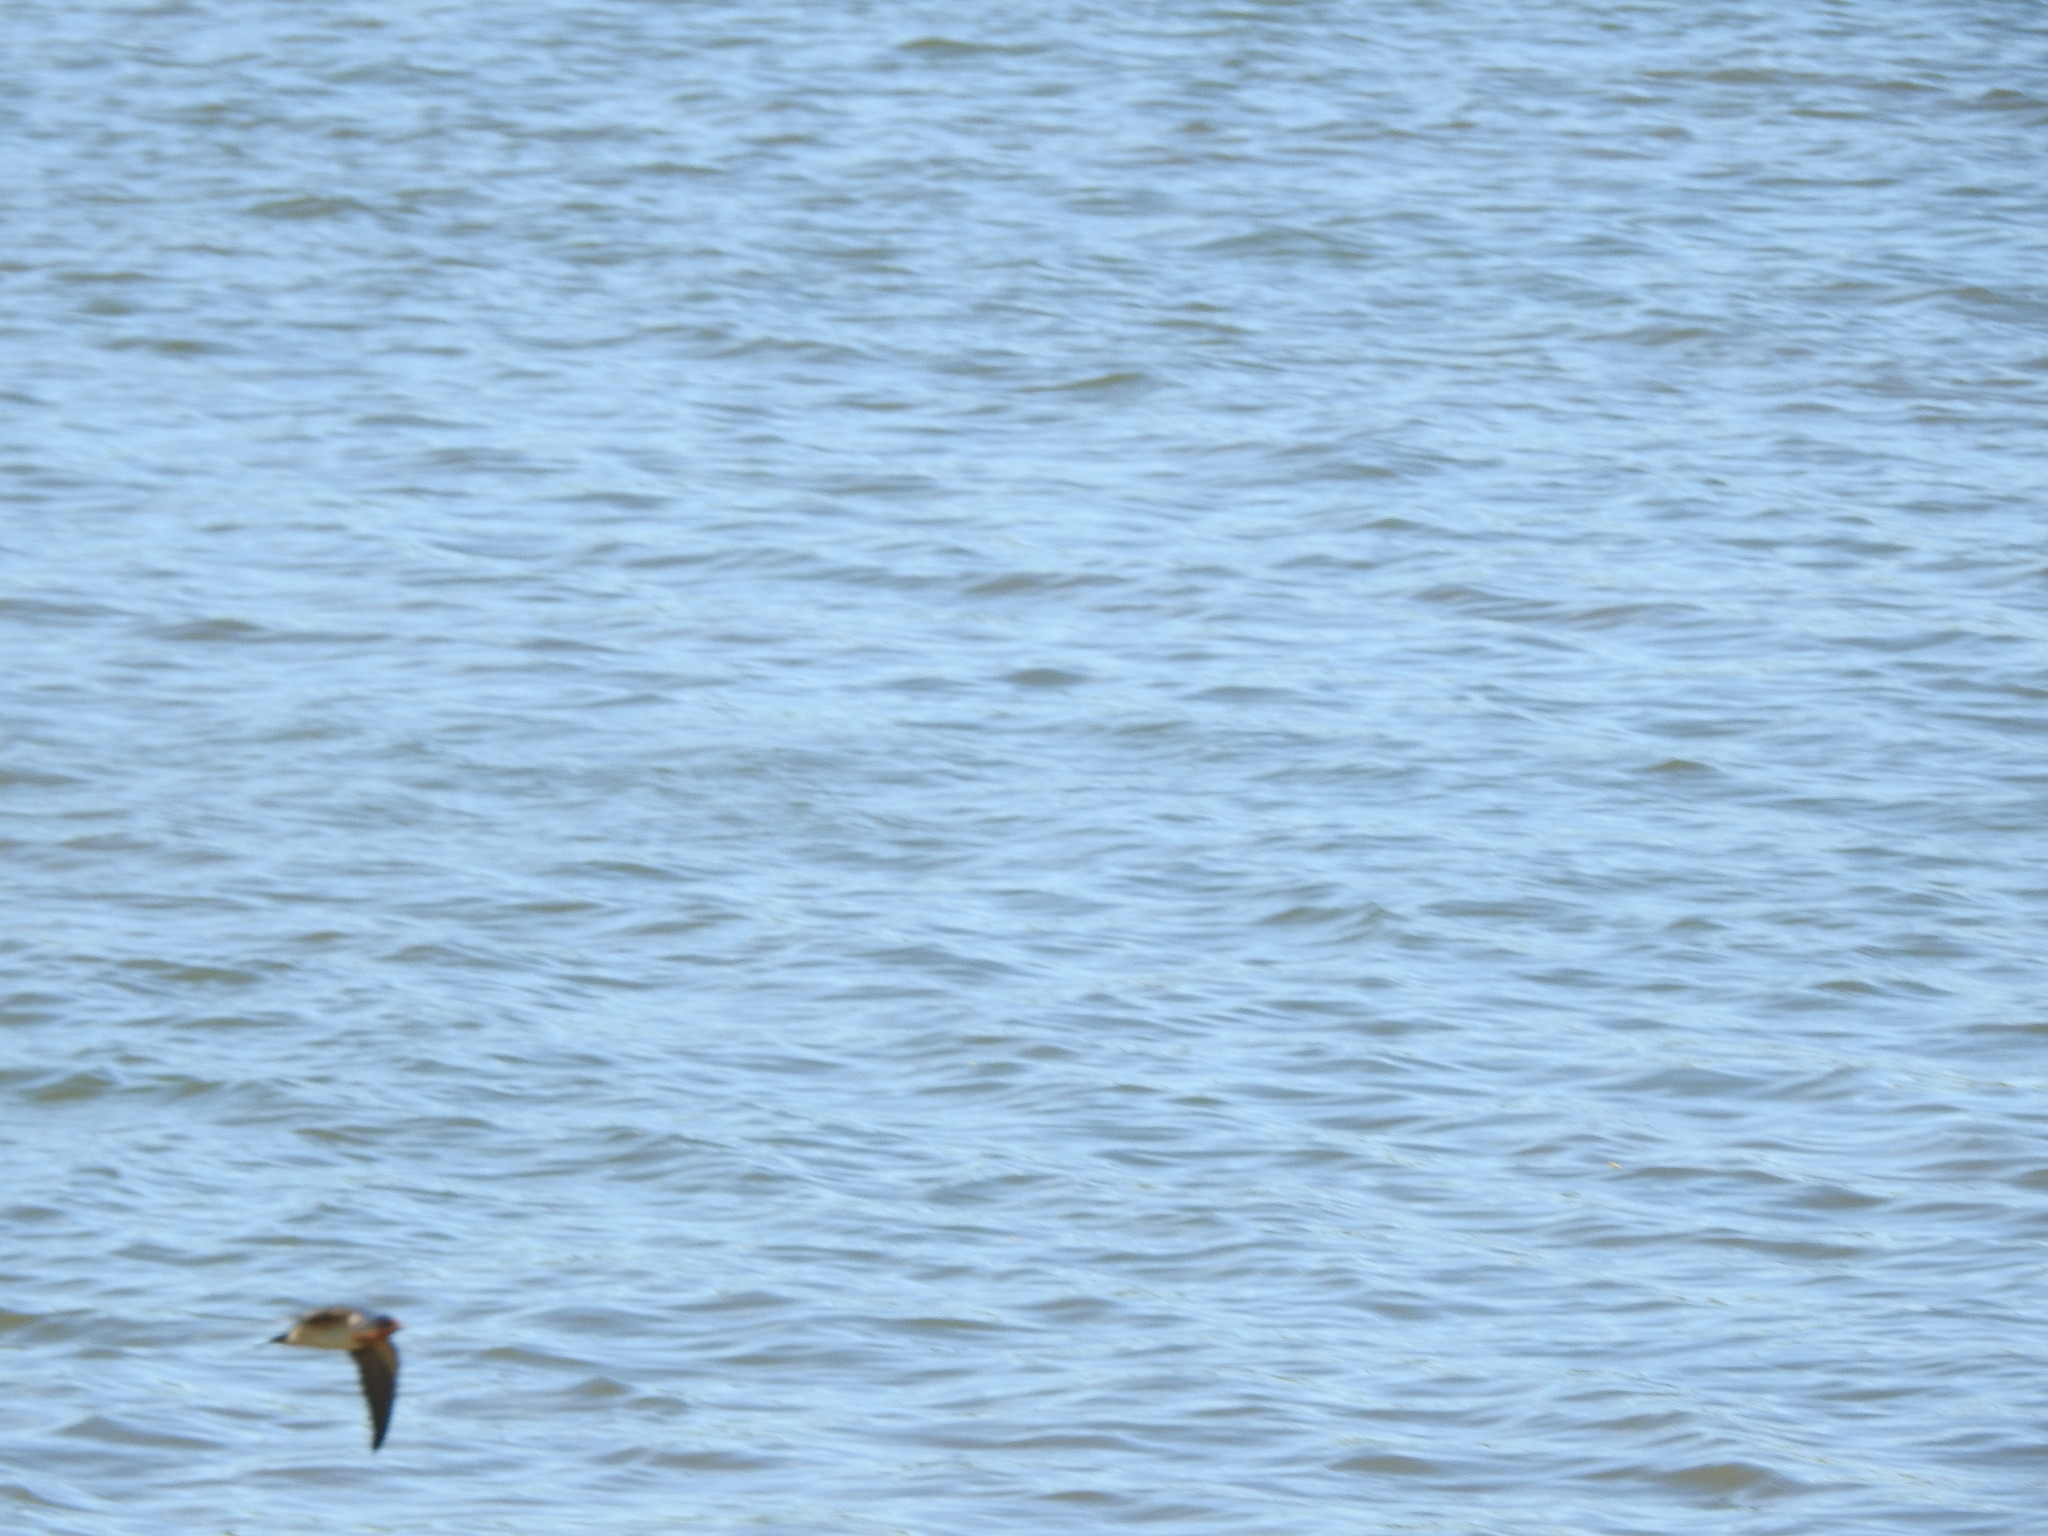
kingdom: Animalia
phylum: Chordata
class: Aves
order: Passeriformes
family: Hirundinidae
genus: Hirundo
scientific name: Hirundo rustica
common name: Barn swallow
